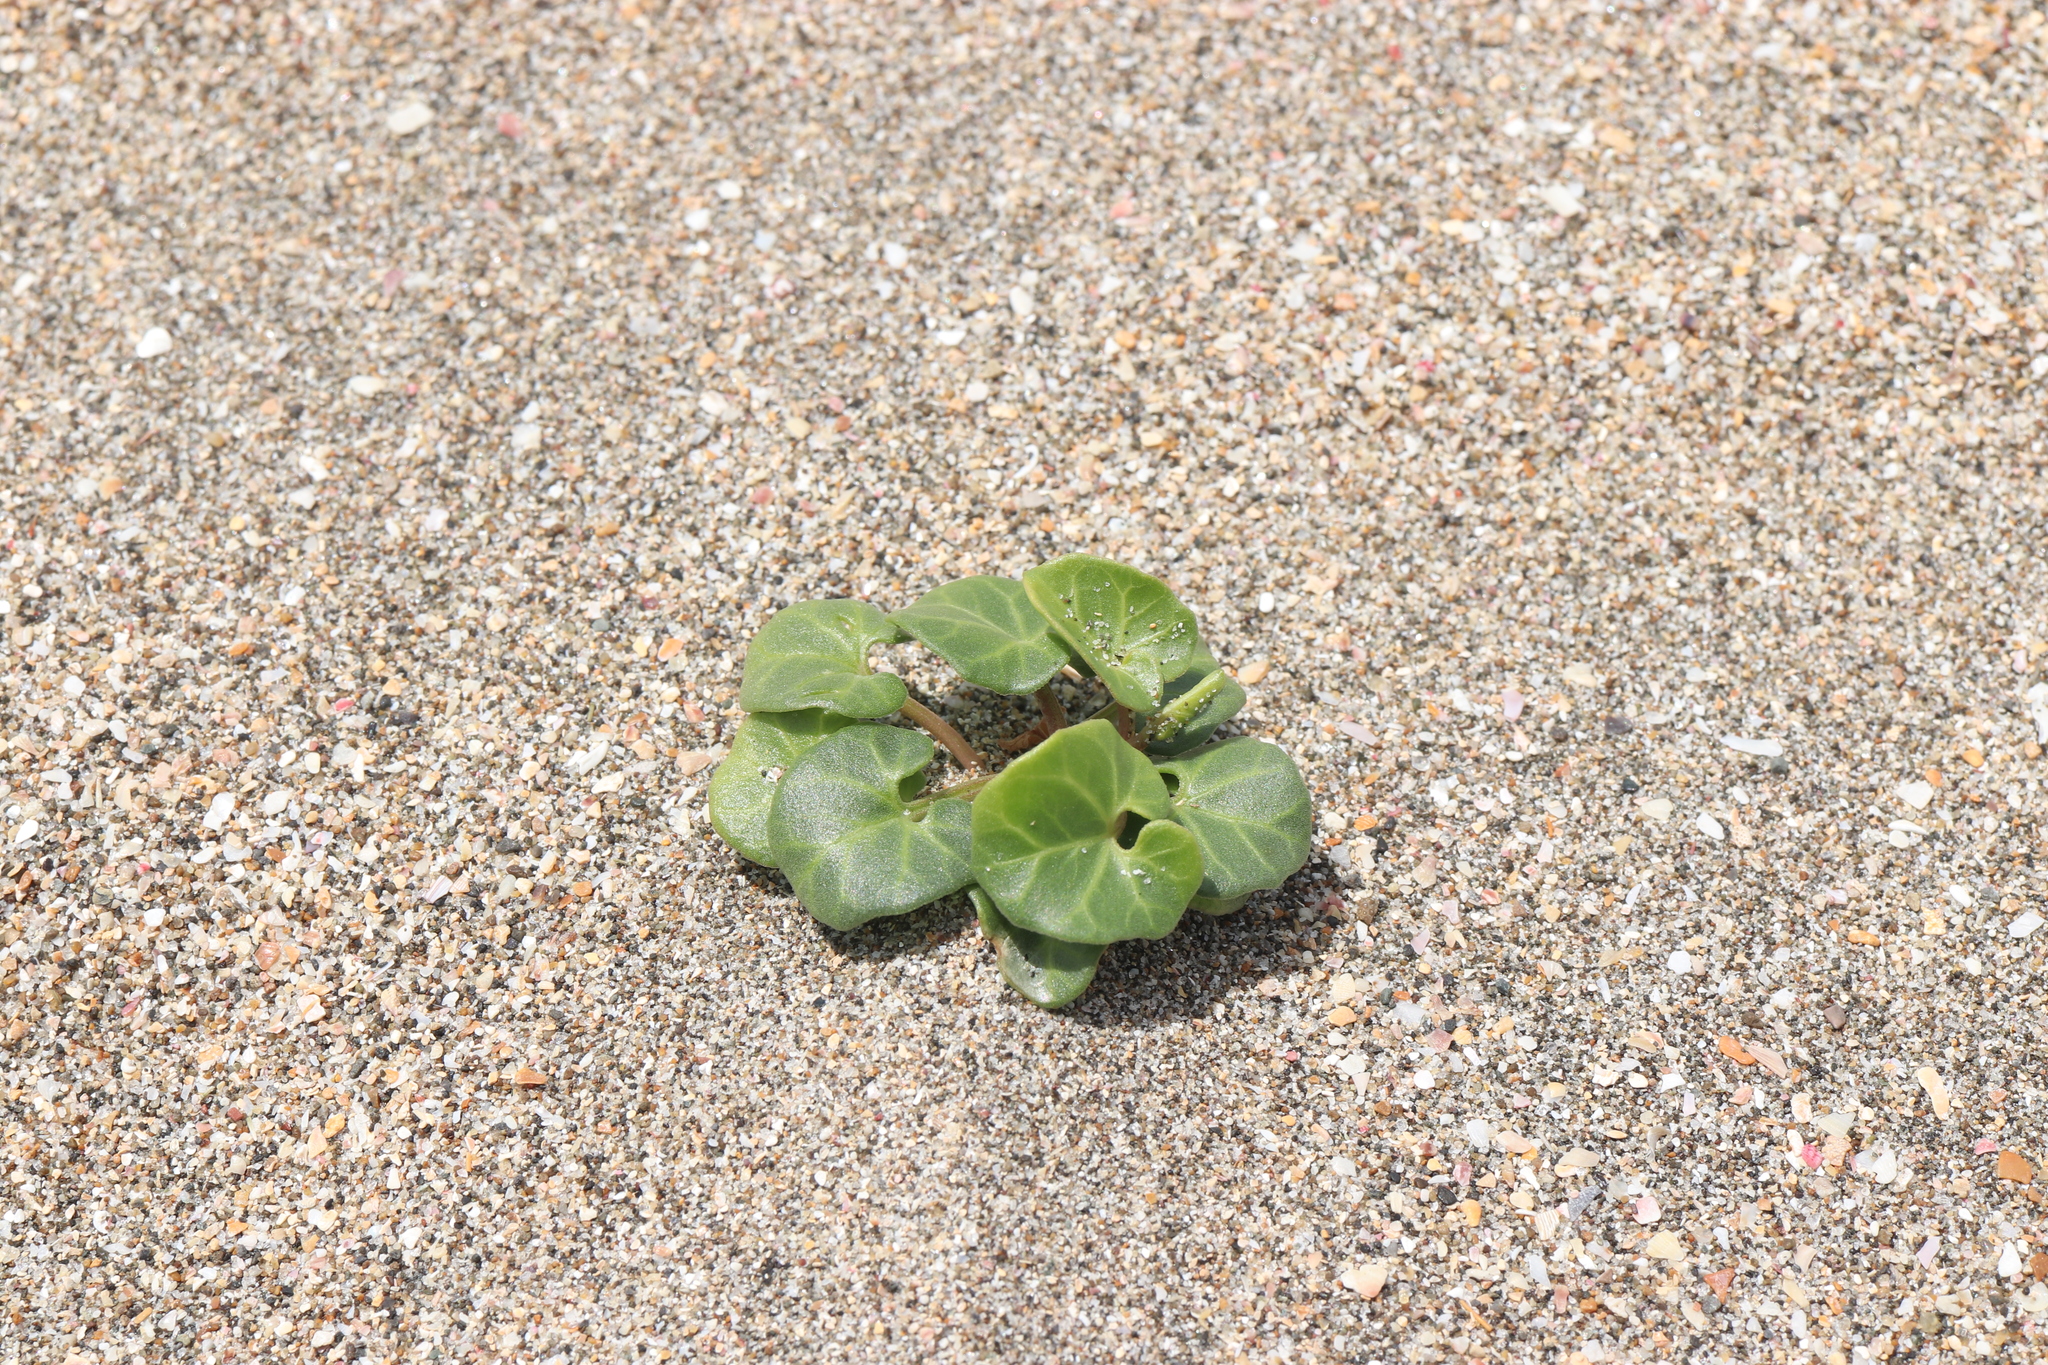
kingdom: Plantae
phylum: Tracheophyta
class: Magnoliopsida
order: Solanales
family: Convolvulaceae
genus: Calystegia
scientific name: Calystegia soldanella
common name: Sea bindweed
